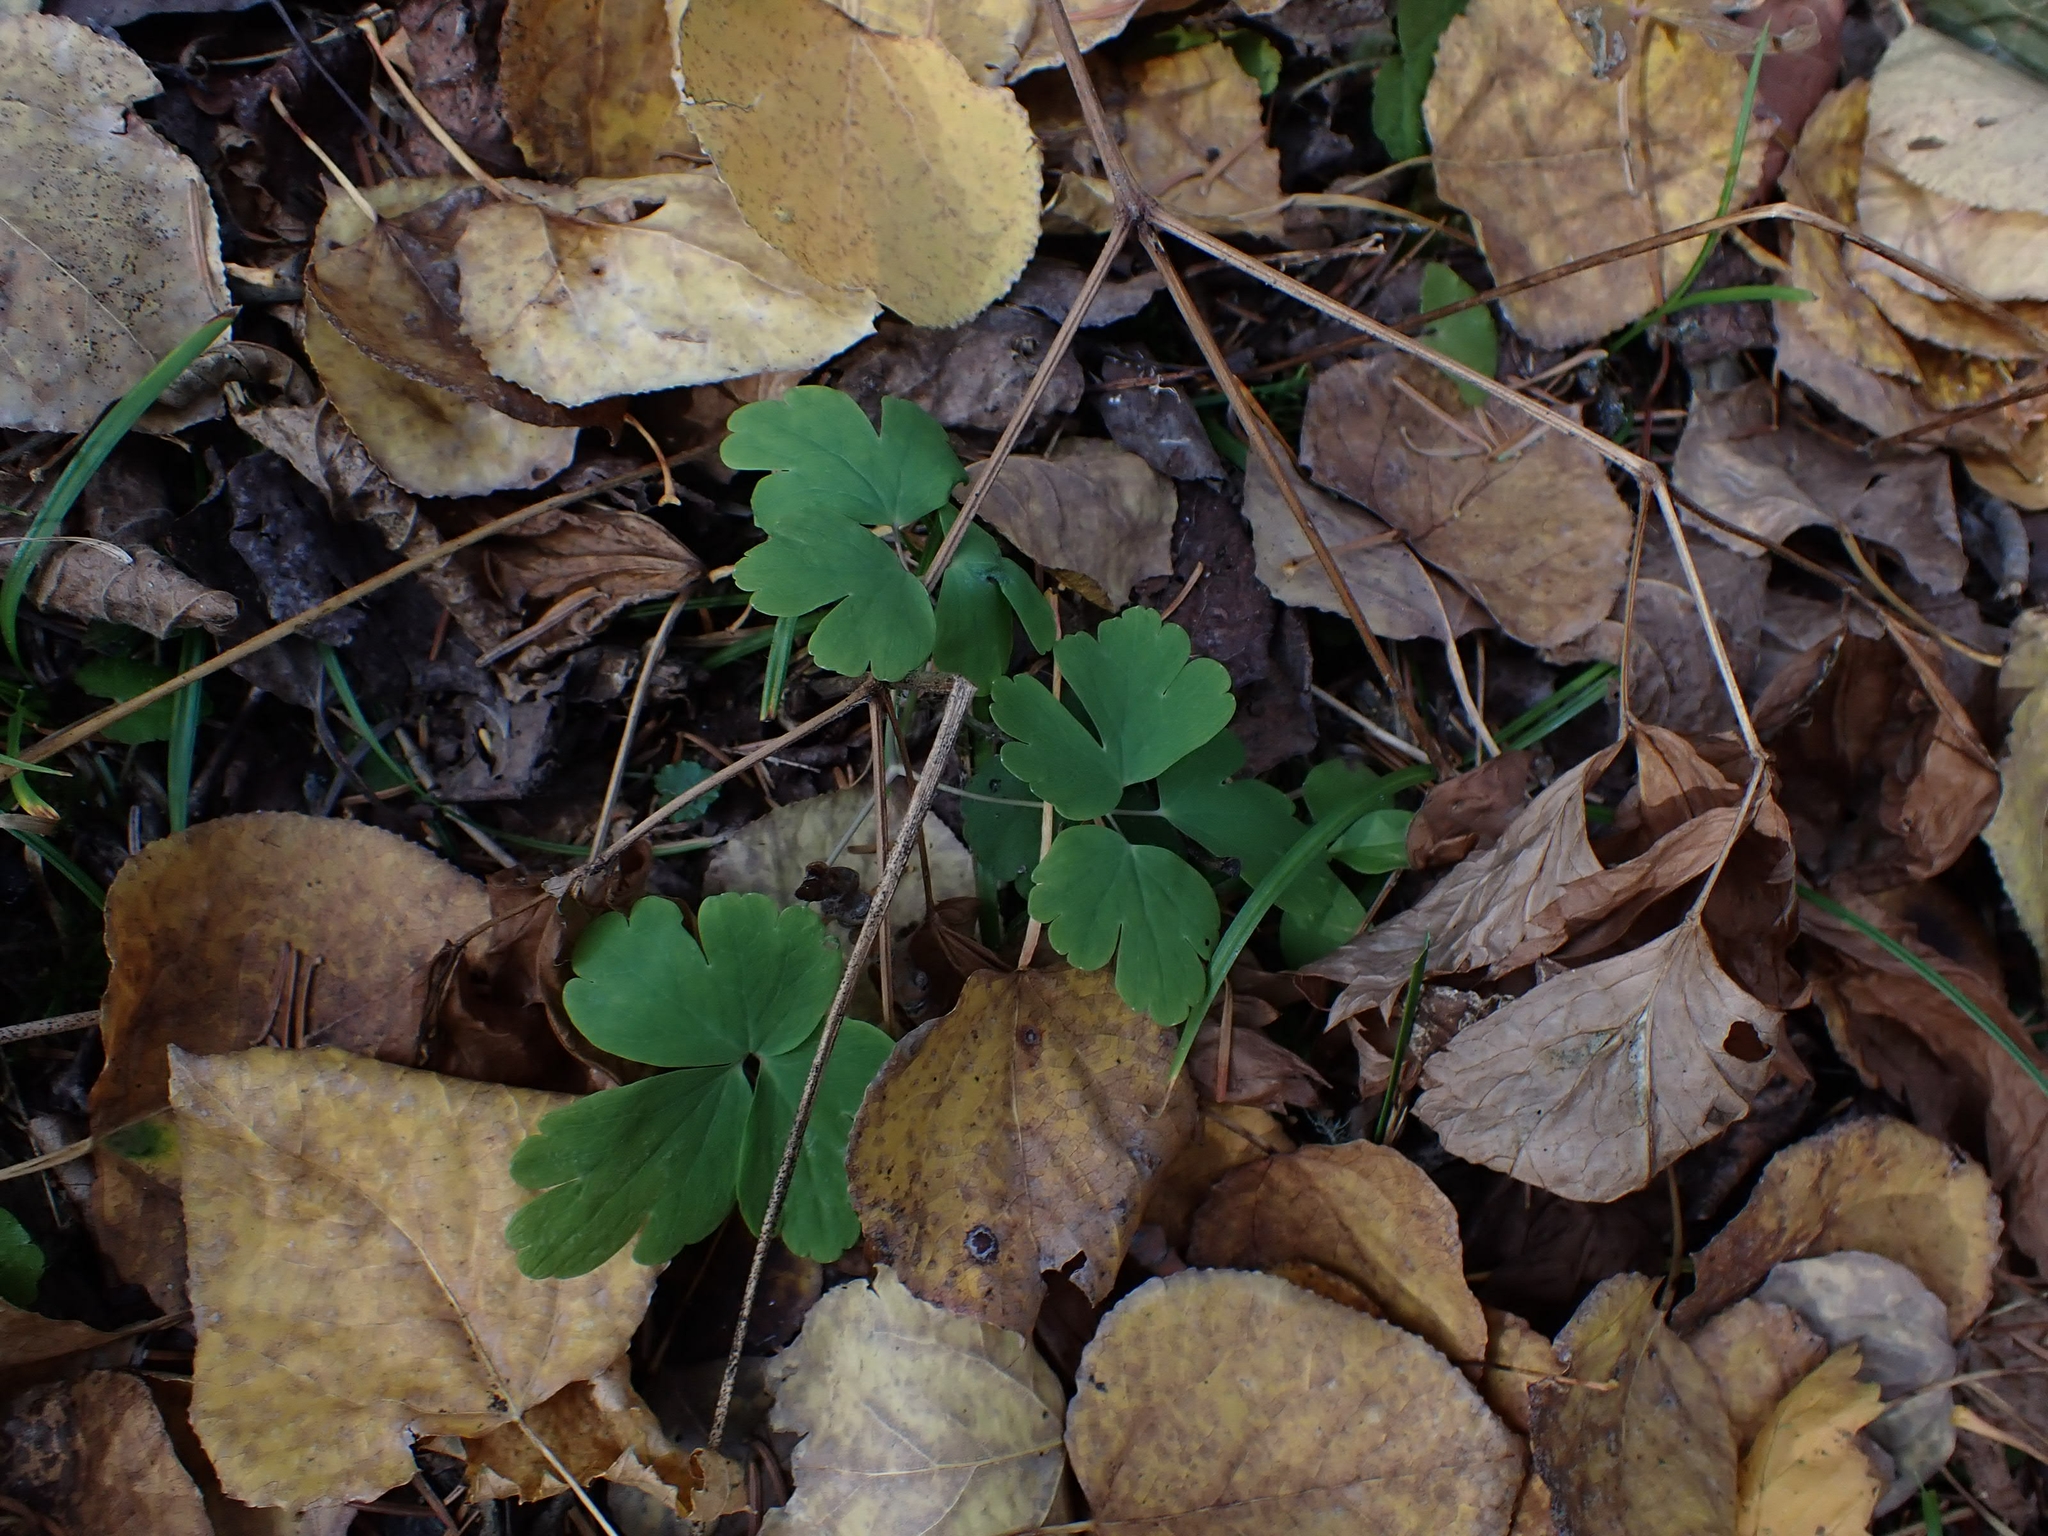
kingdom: Plantae
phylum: Tracheophyta
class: Magnoliopsida
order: Ranunculales
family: Ranunculaceae
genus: Aquilegia
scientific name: Aquilegia canadensis
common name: American columbine
